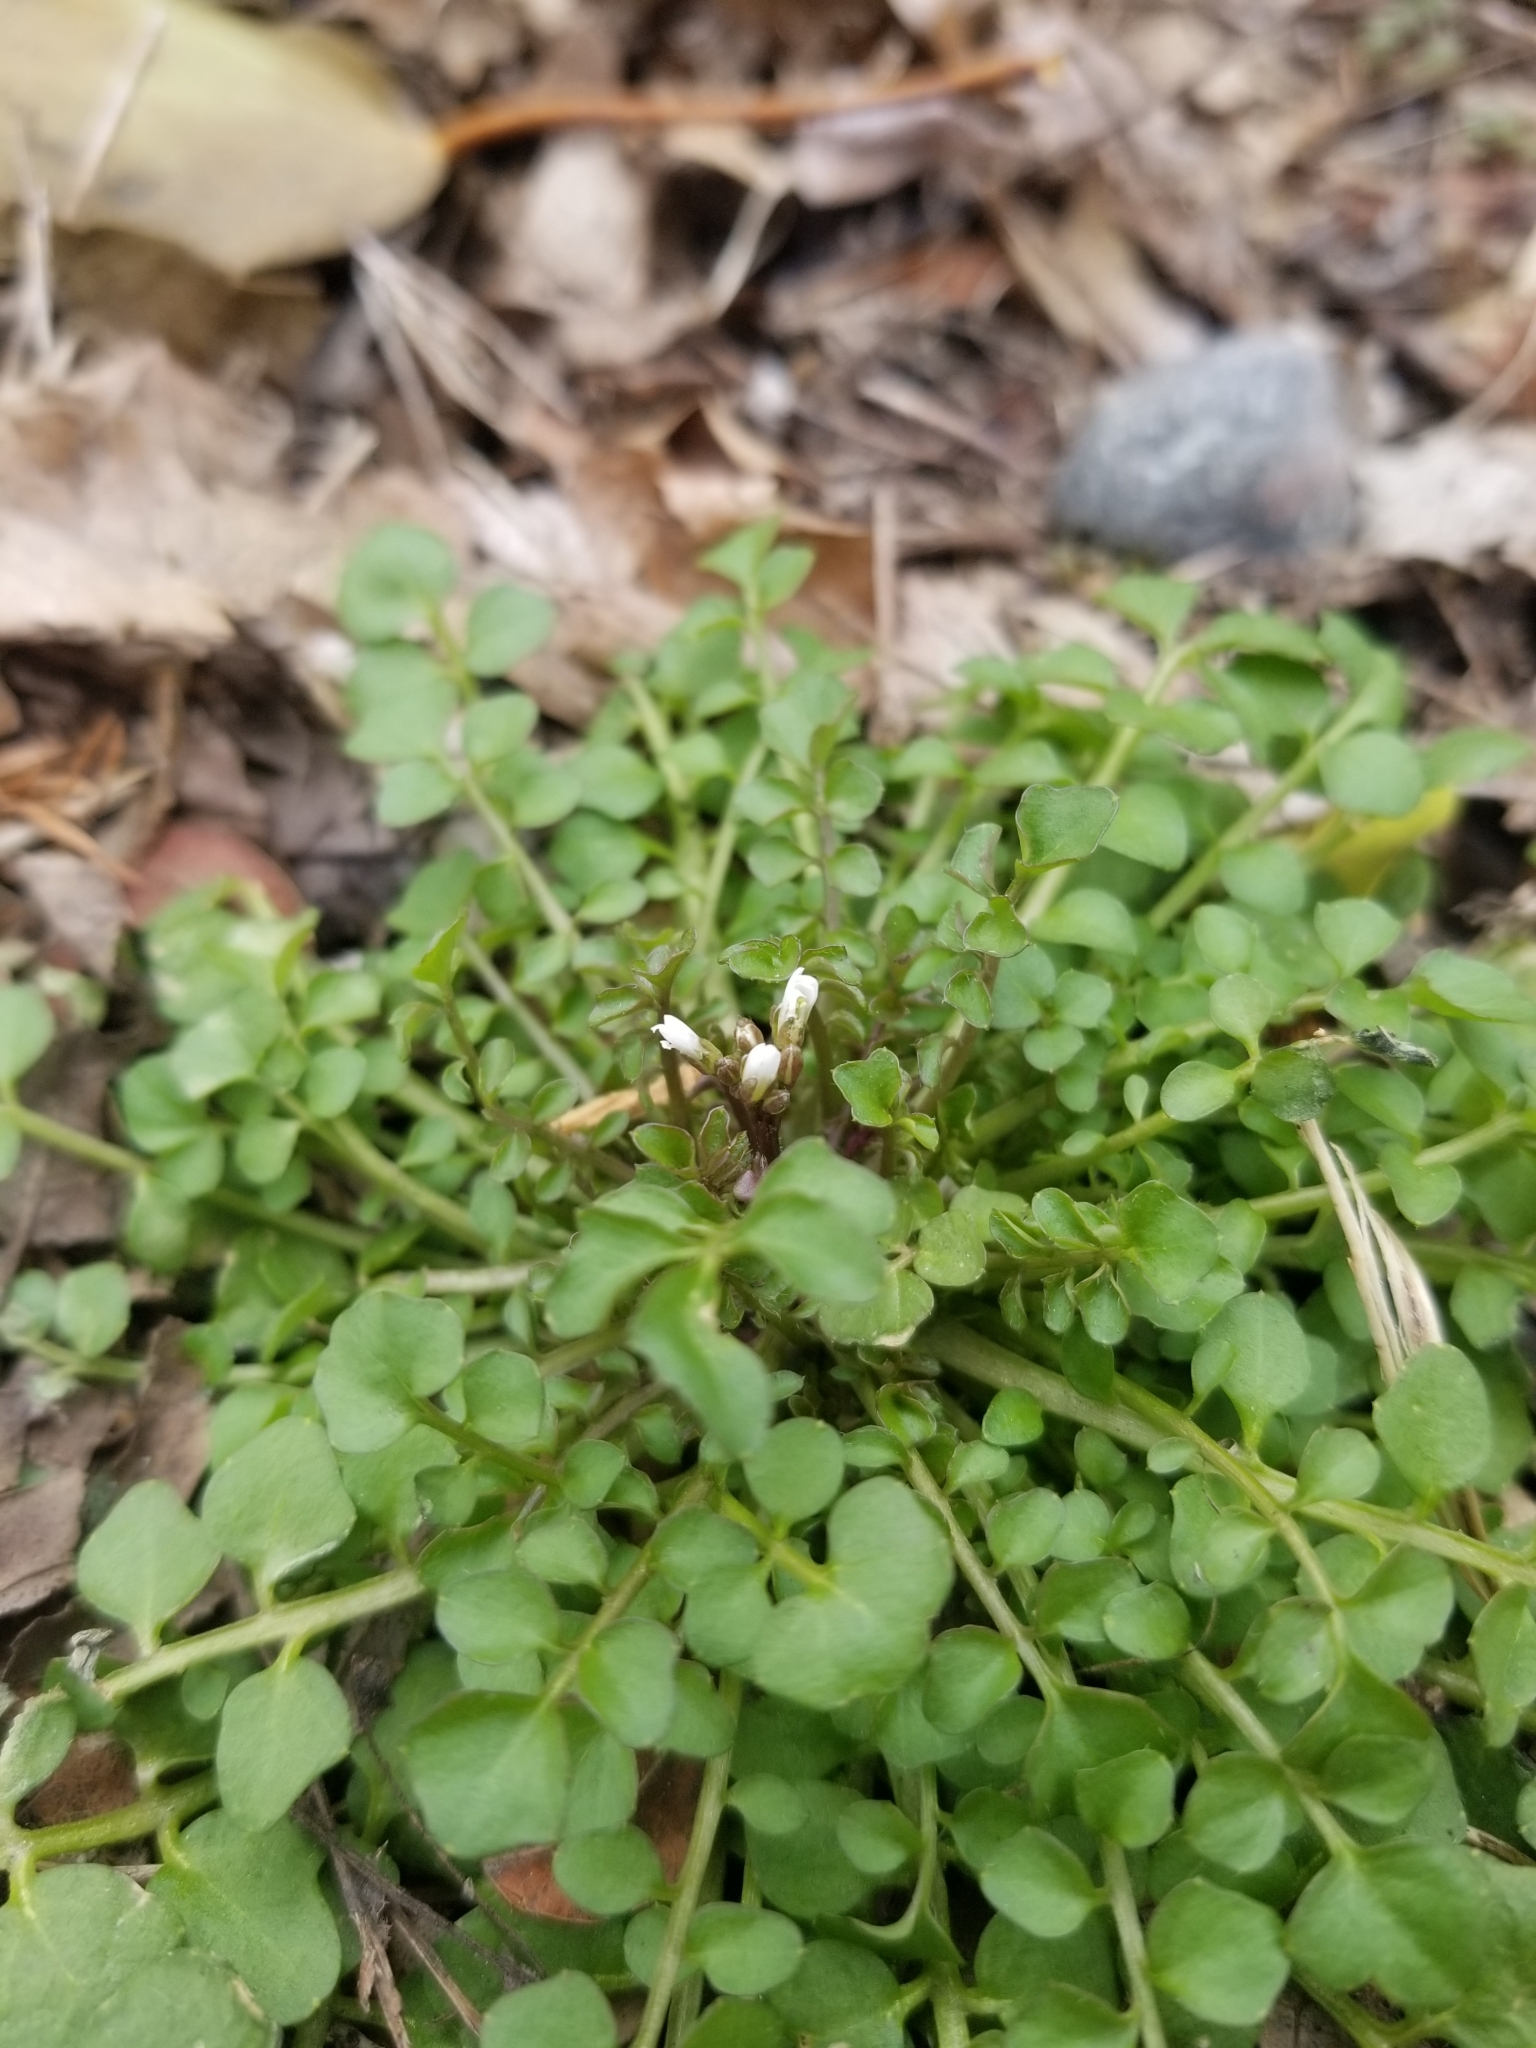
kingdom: Plantae
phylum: Tracheophyta
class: Magnoliopsida
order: Brassicales
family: Brassicaceae
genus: Cardamine
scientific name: Cardamine hirsuta
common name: Hairy bittercress
